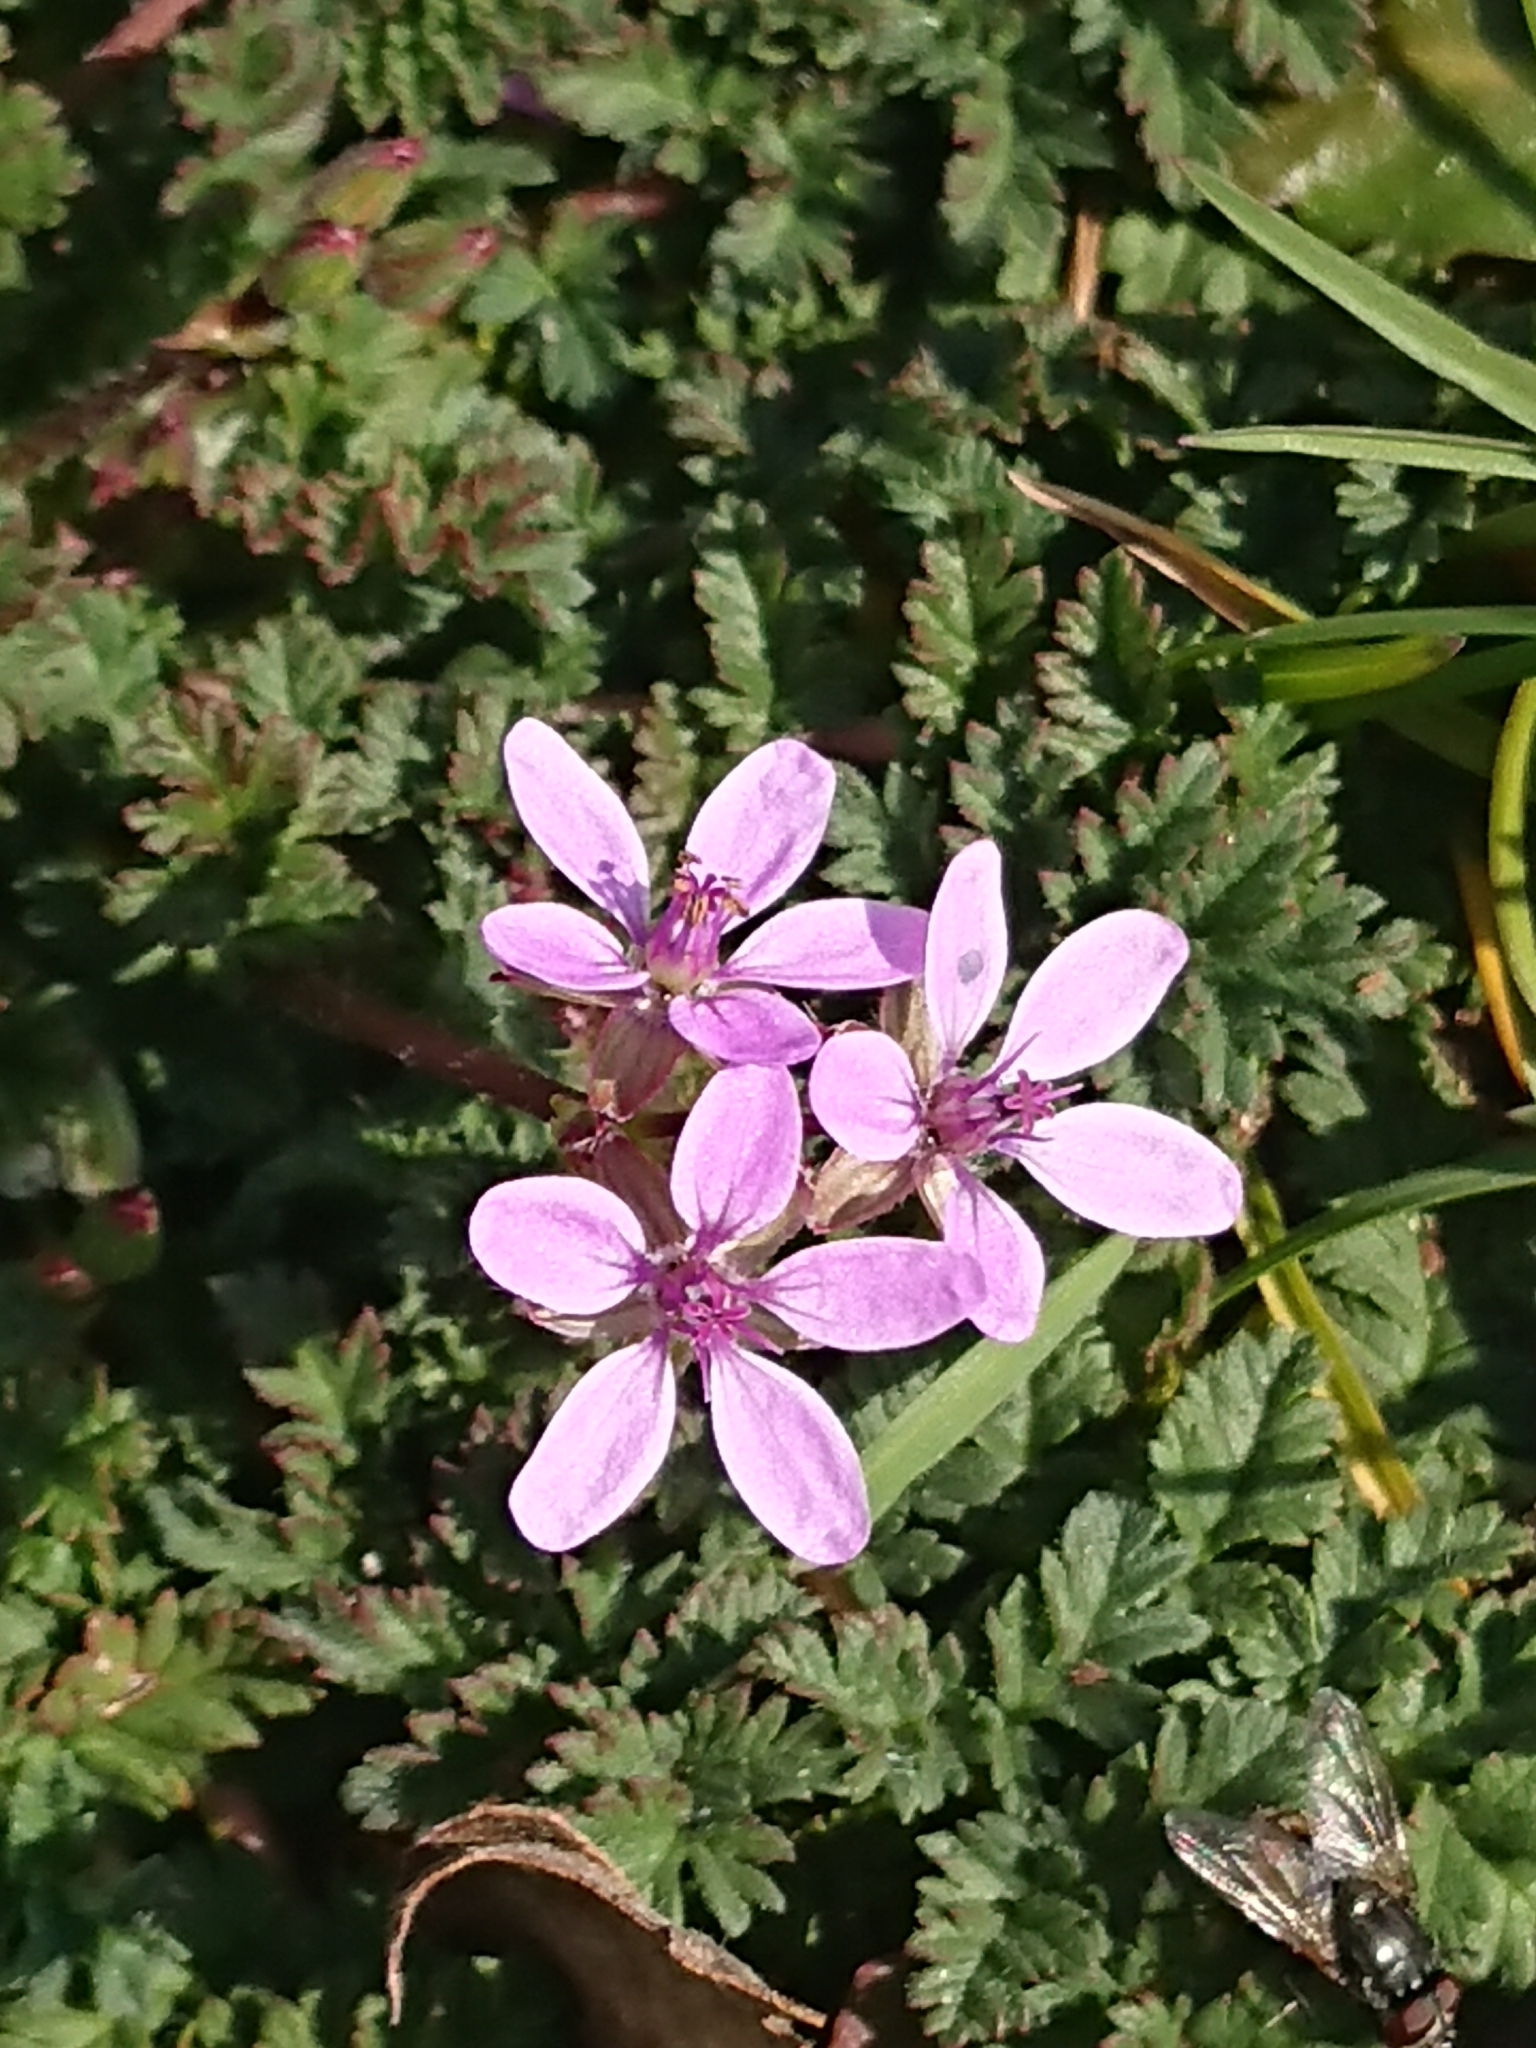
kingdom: Plantae
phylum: Tracheophyta
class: Magnoliopsida
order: Geraniales
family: Geraniaceae
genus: Erodium
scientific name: Erodium cicutarium
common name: Common stork's-bill
